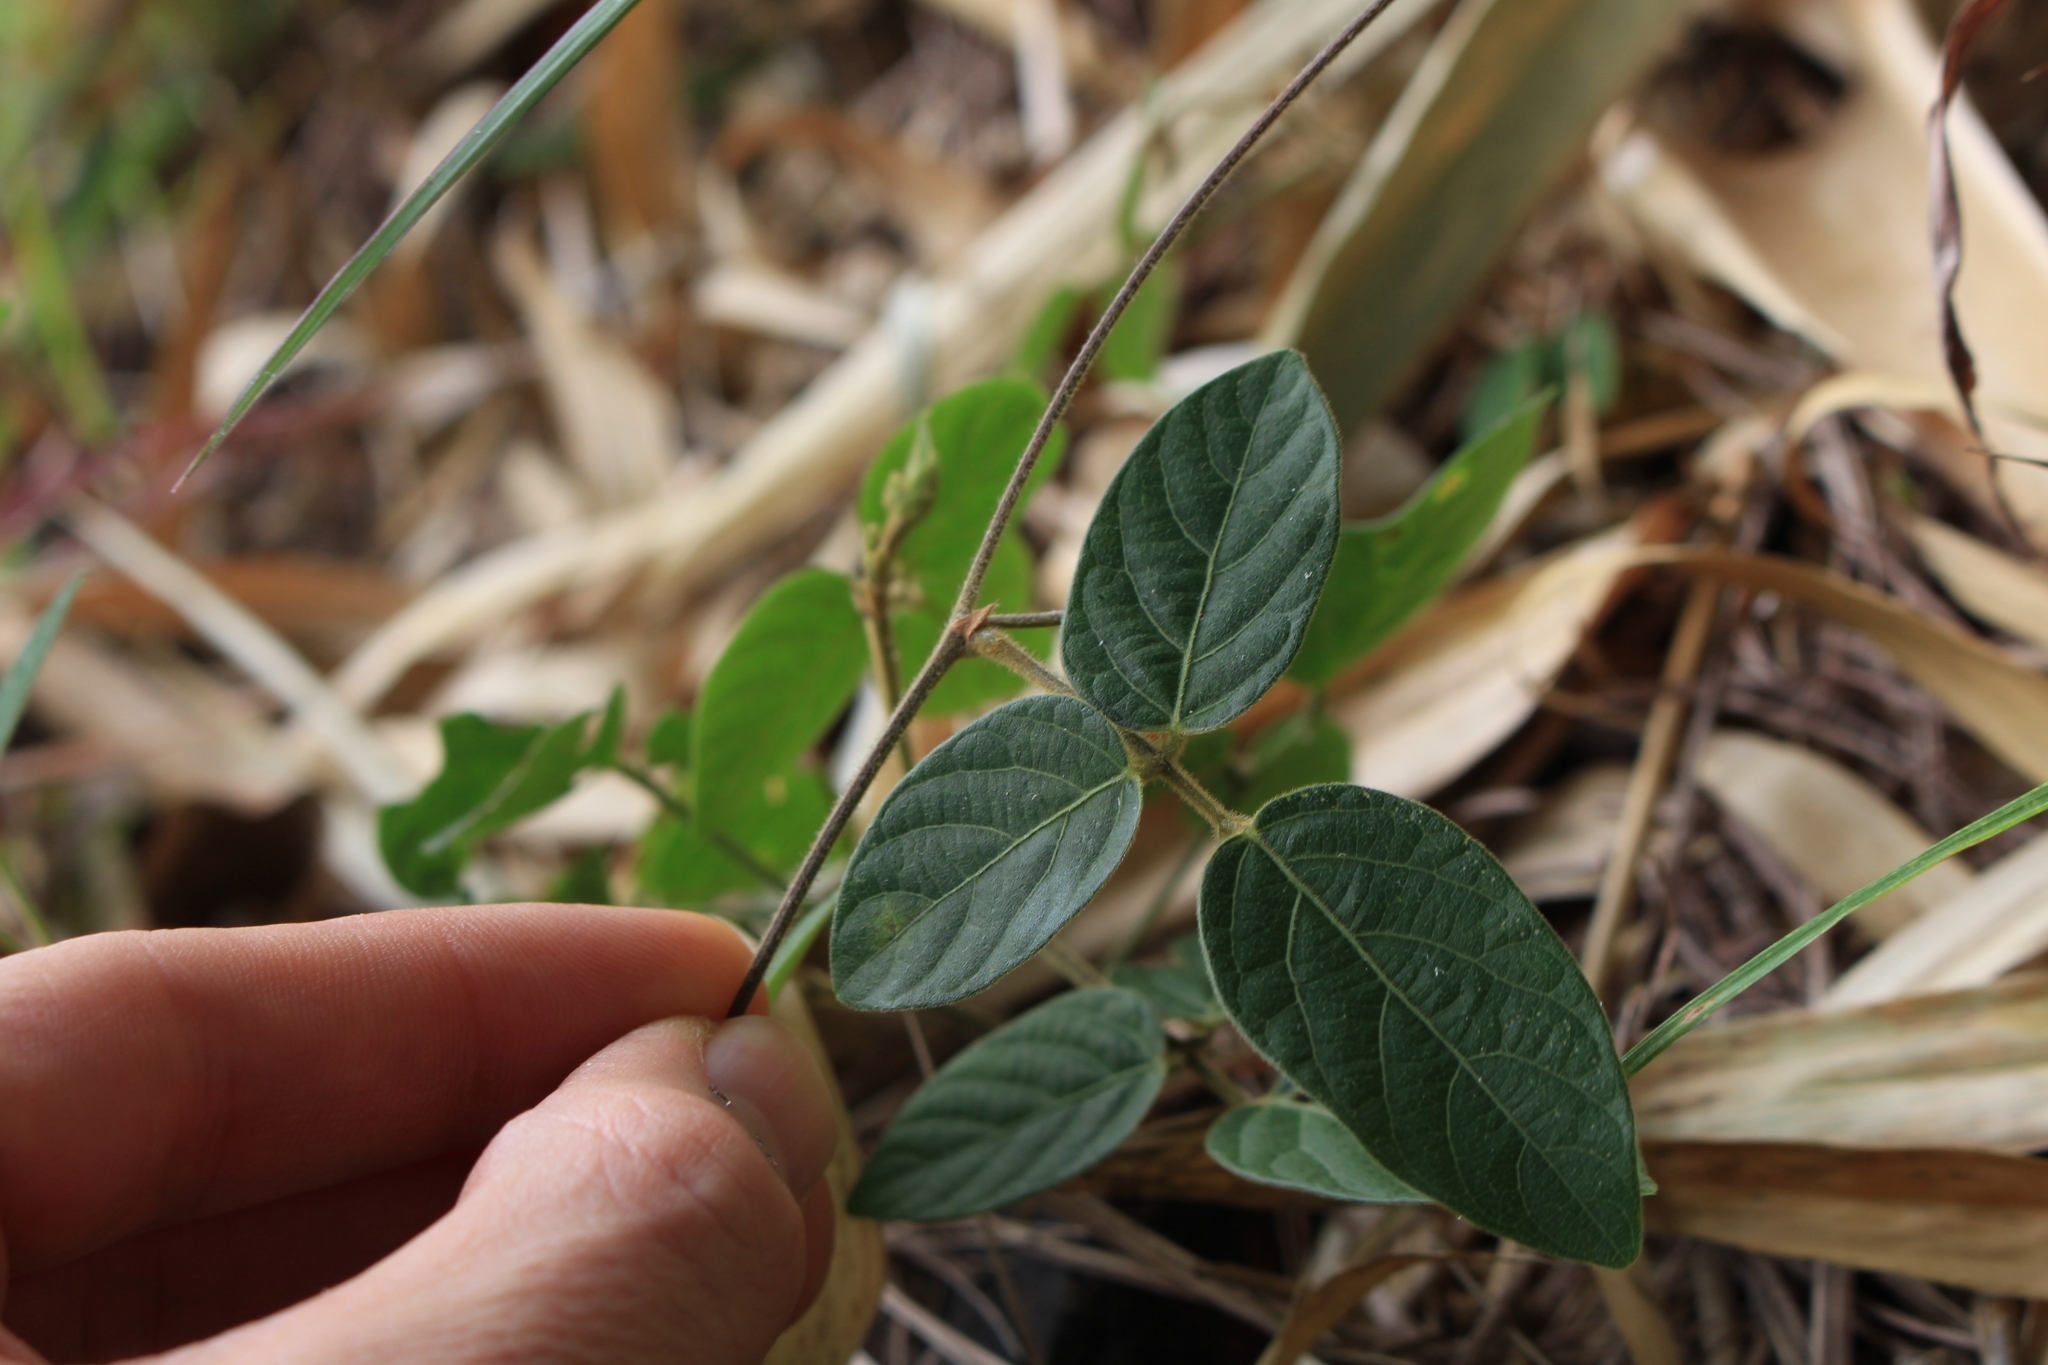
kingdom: Plantae
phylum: Tracheophyta
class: Magnoliopsida
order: Fabales
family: Fabaceae
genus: Centrosema
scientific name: Centrosema pubescens
